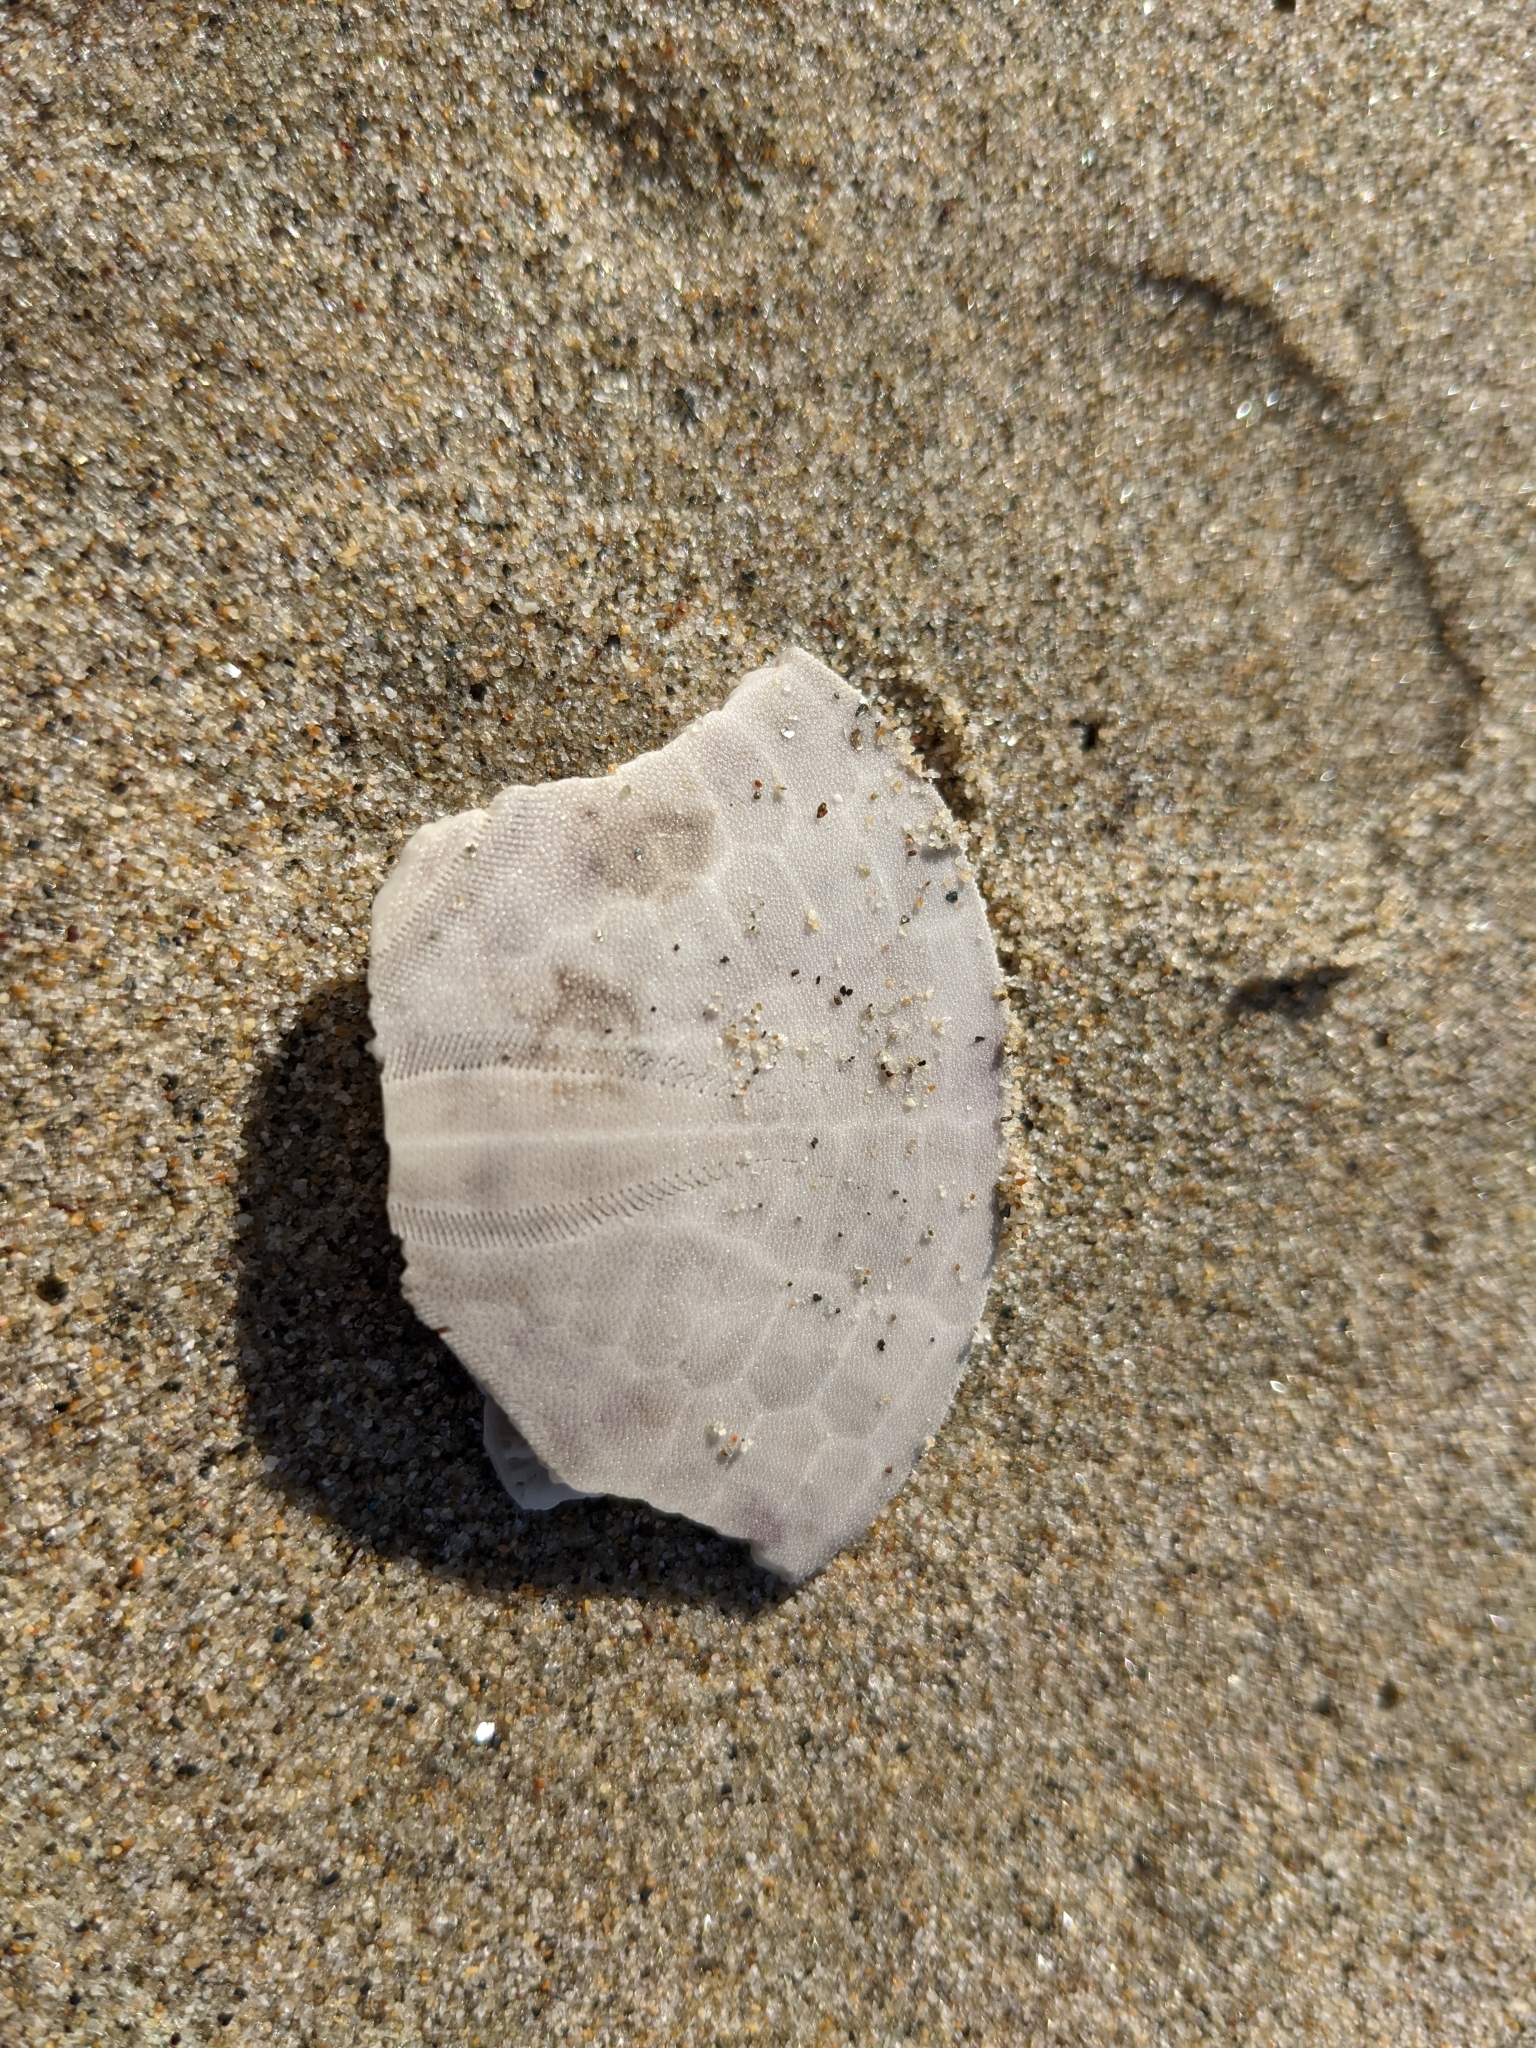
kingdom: Animalia
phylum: Echinodermata
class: Echinoidea
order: Echinolampadacea
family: Dendrasteridae
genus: Dendraster
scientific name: Dendraster excentricus
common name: Eccentric sand dollar sea urchin
